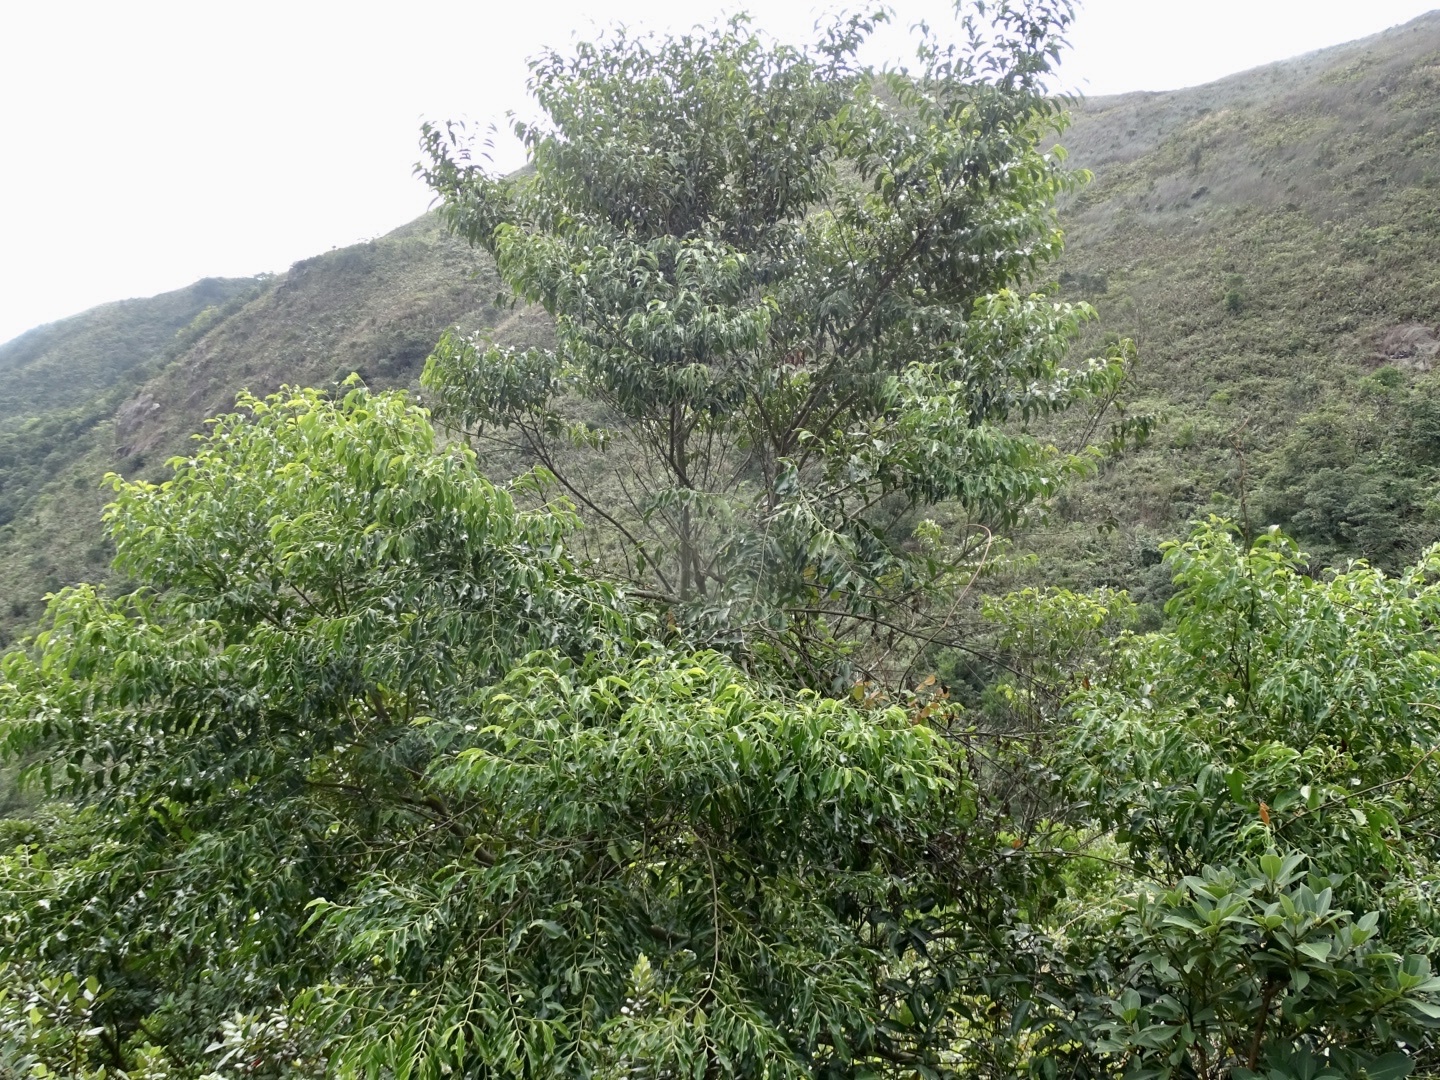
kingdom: Plantae
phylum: Tracheophyta
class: Magnoliopsida
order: Gentianales
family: Rubiaceae
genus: Psydrax
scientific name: Psydrax dicoccos
